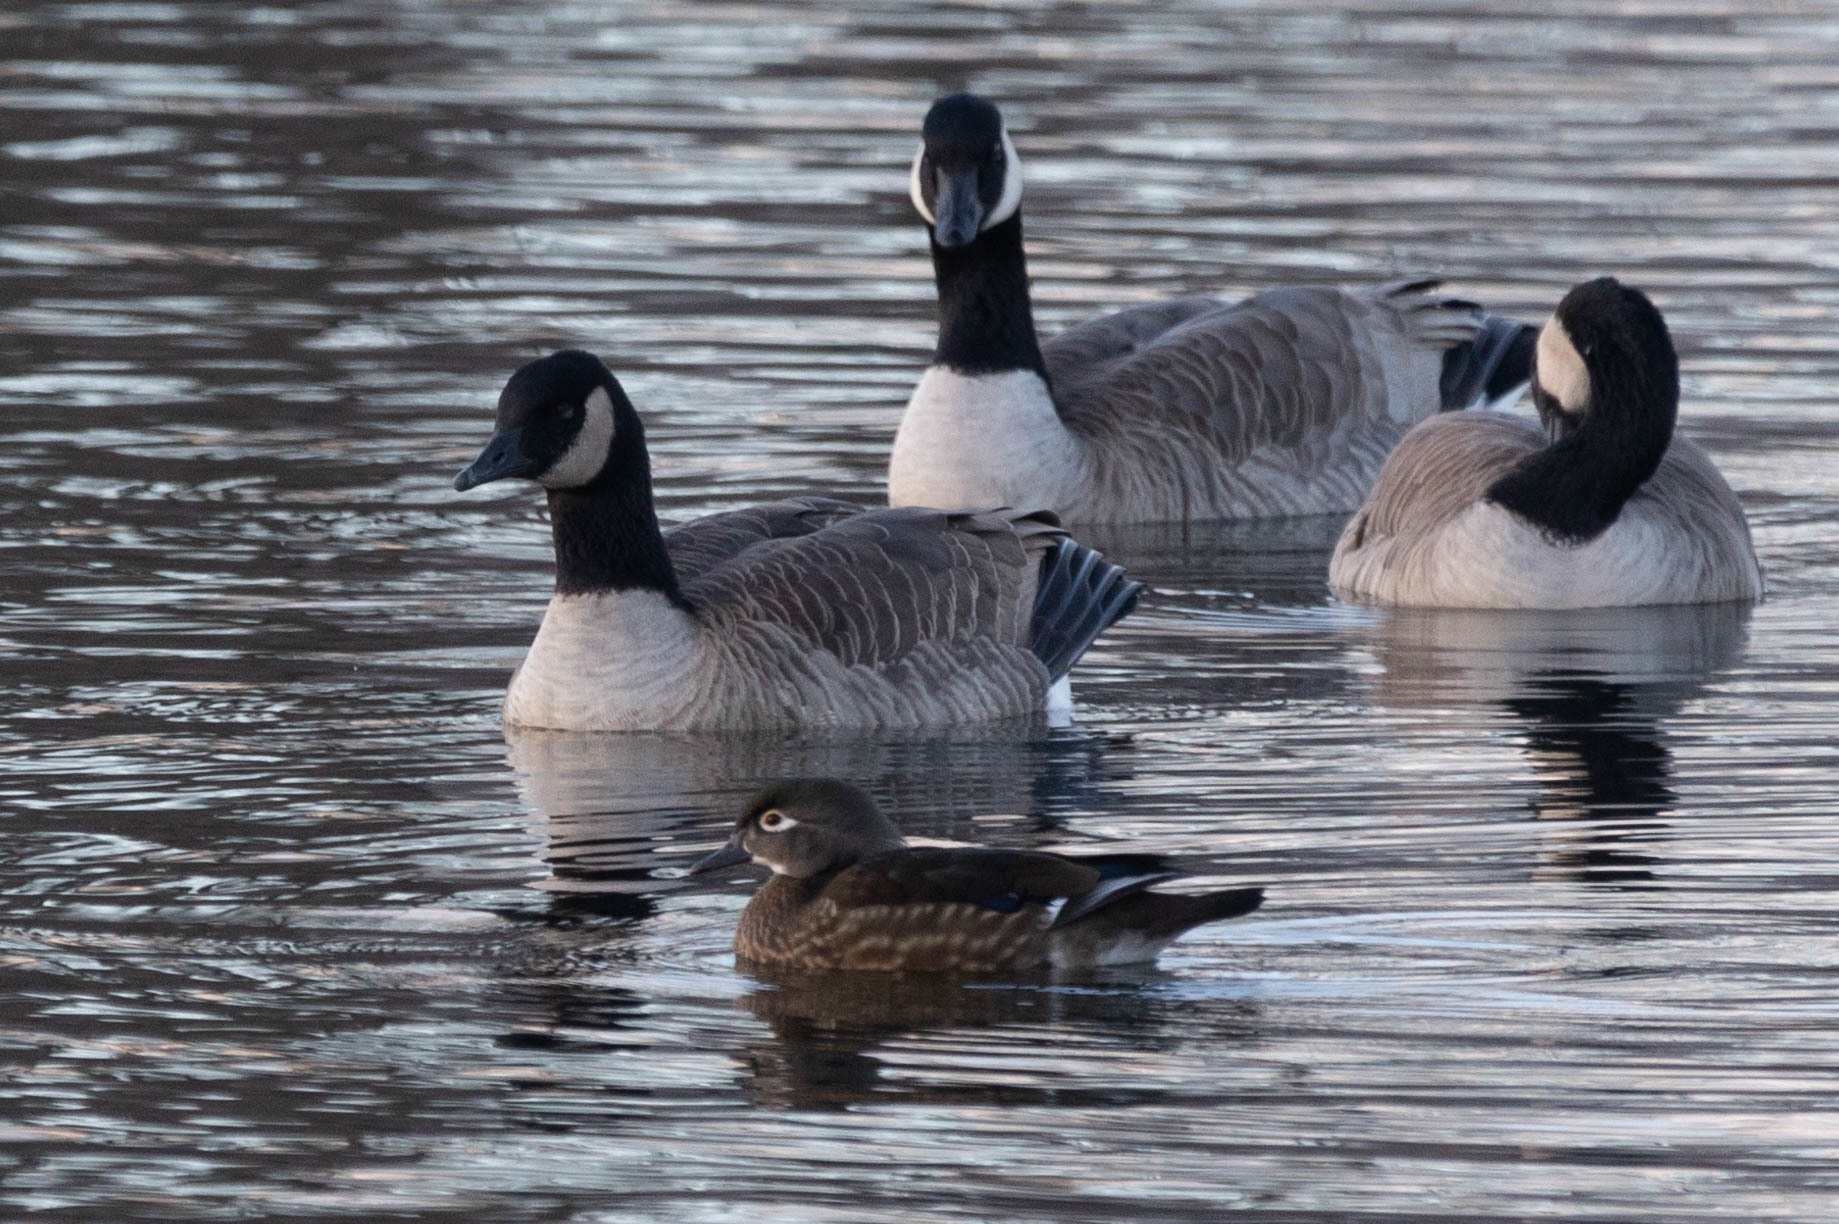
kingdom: Animalia
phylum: Chordata
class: Aves
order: Anseriformes
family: Anatidae
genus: Aix
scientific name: Aix sponsa
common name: Wood duck
